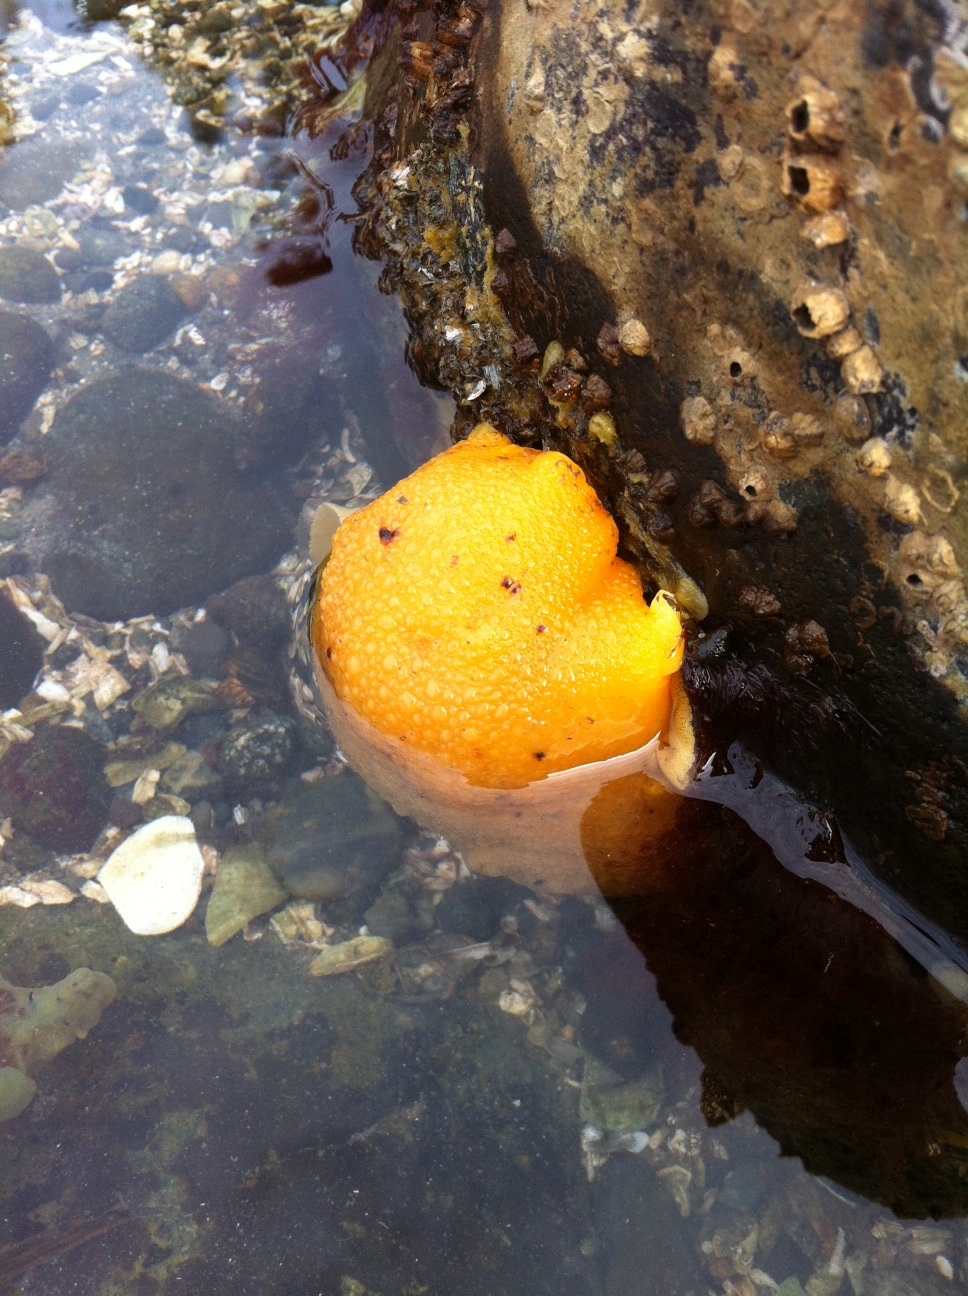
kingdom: Animalia
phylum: Mollusca
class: Gastropoda
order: Nudibranchia
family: Dorididae
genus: Doris
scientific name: Doris montereyensis
